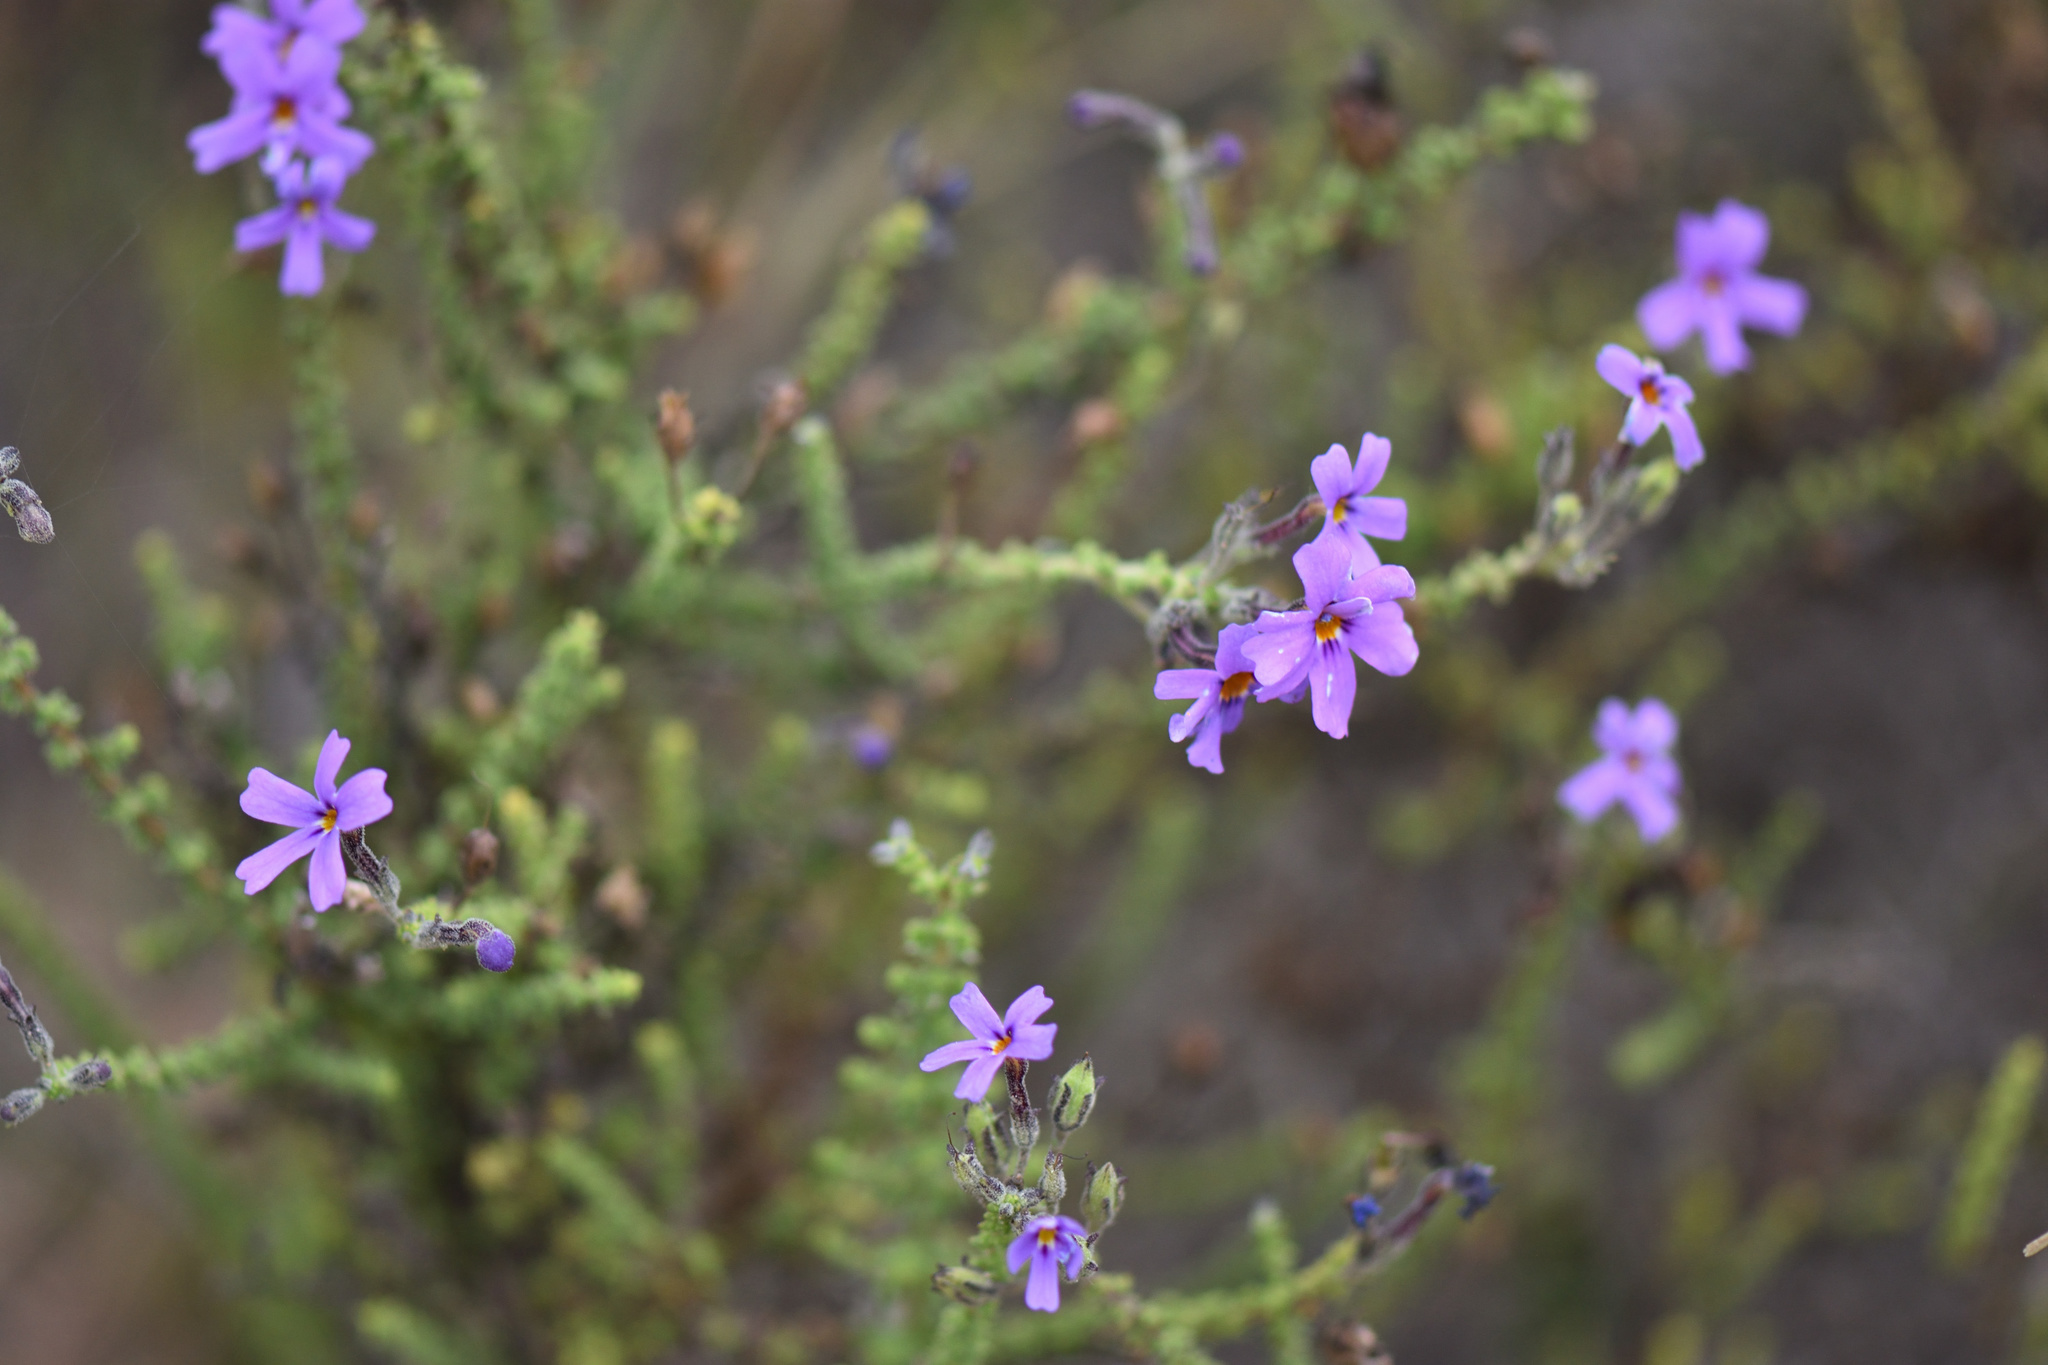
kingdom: Plantae
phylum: Tracheophyta
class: Magnoliopsida
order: Lamiales
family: Scrophulariaceae
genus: Jamesbrittenia
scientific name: Jamesbrittenia microphylla
